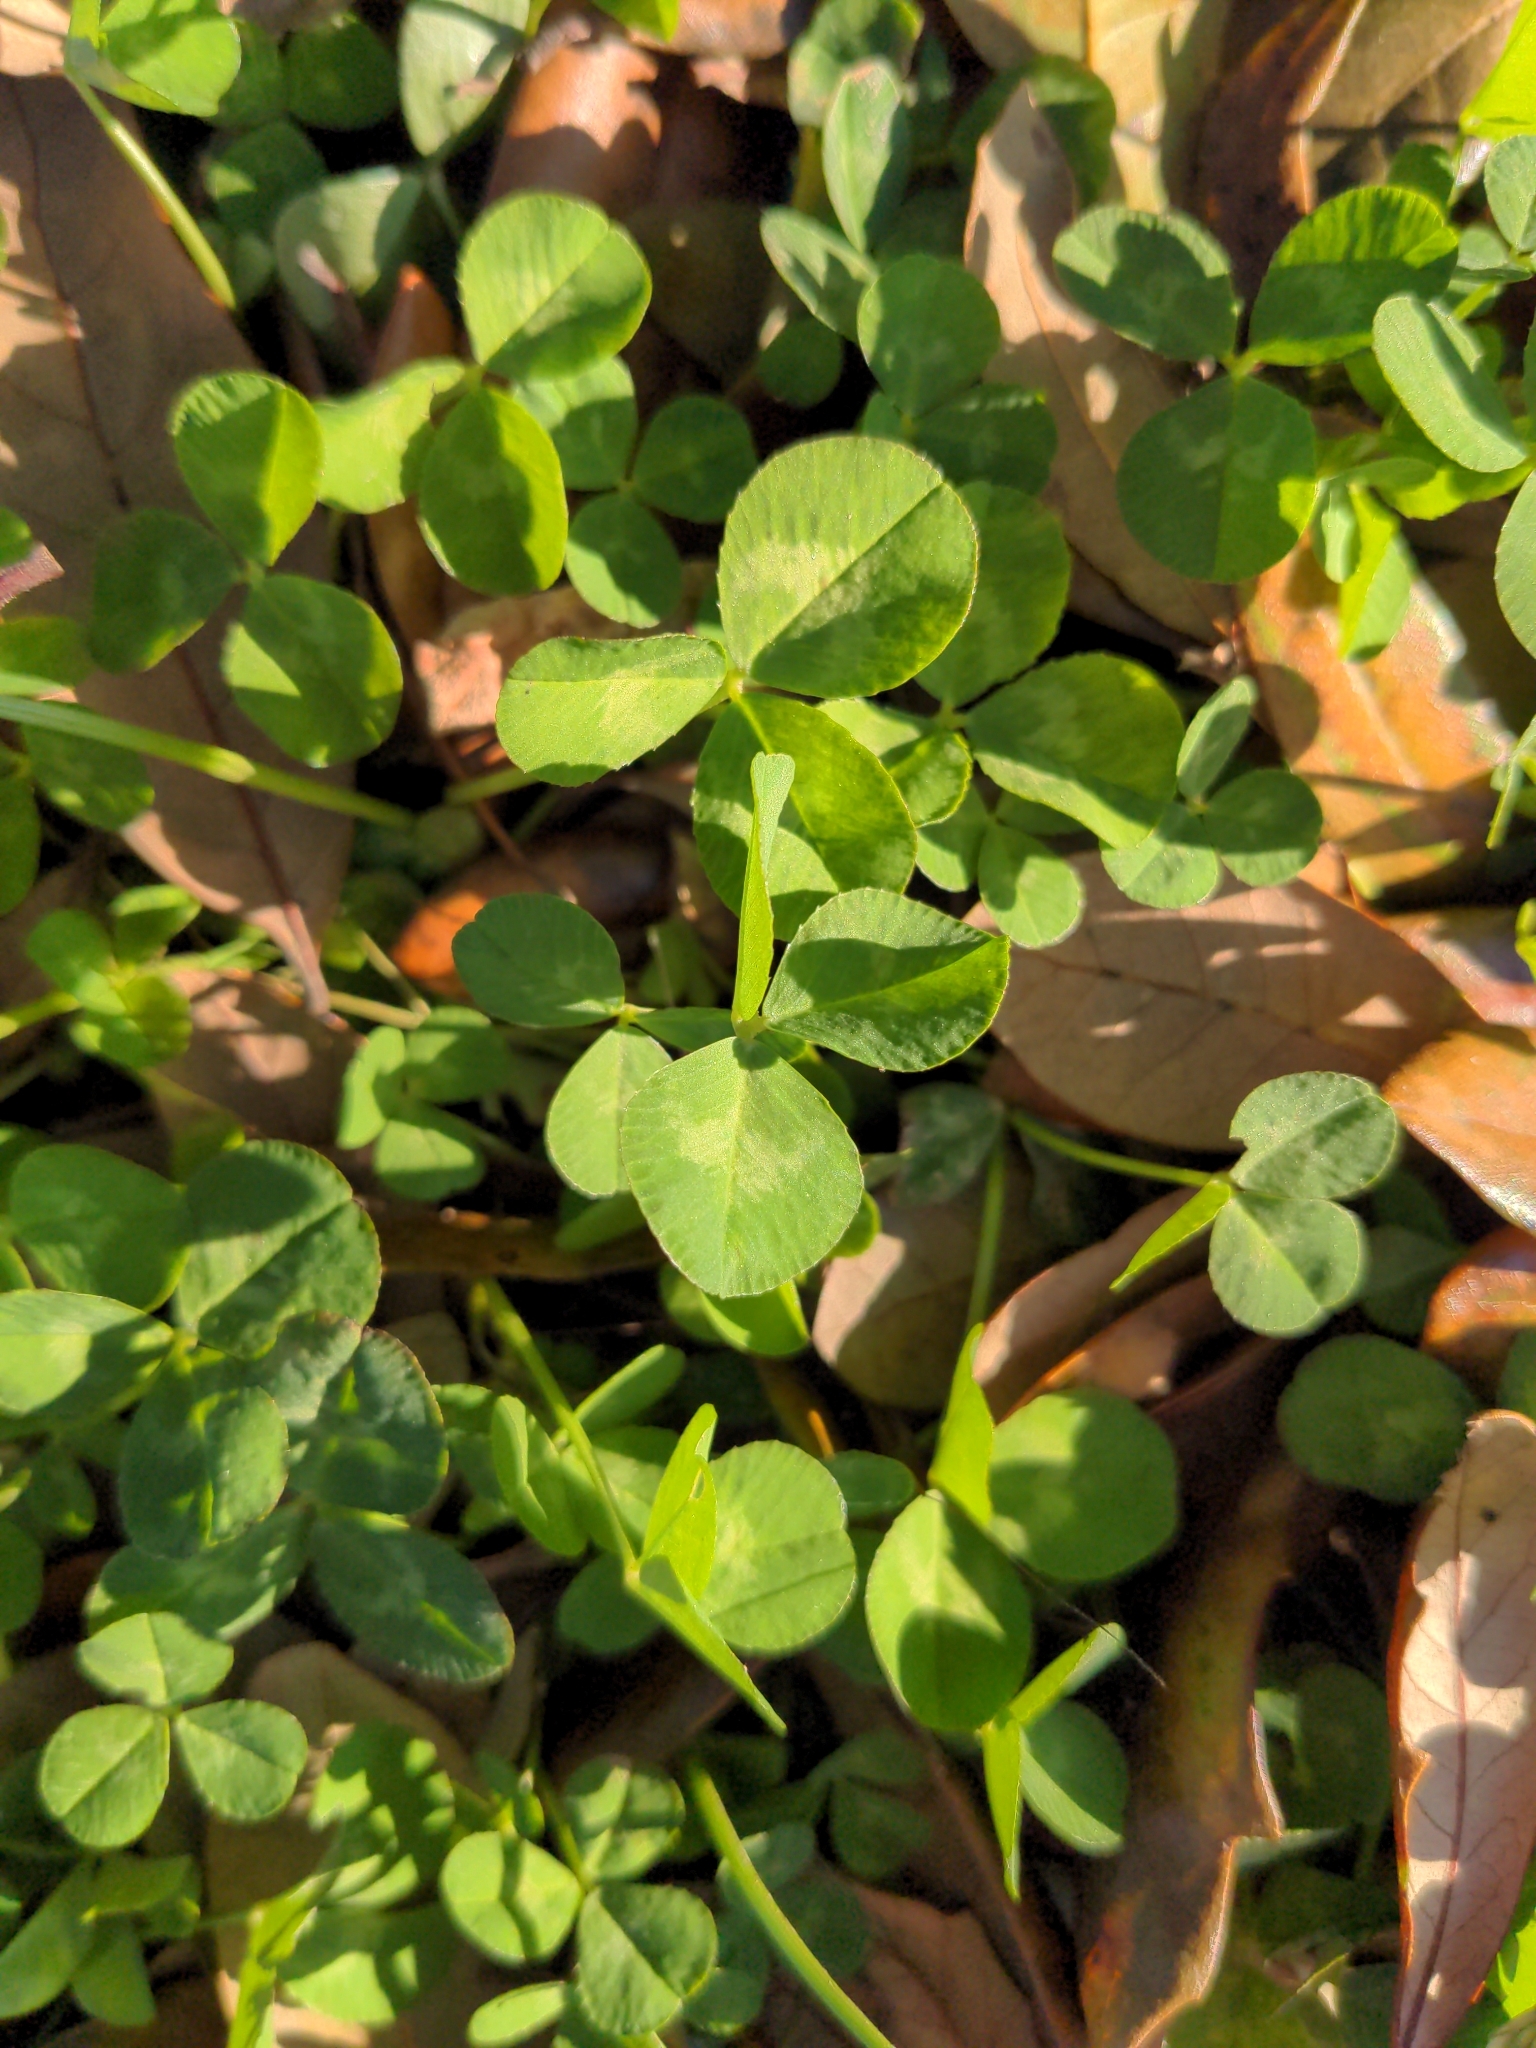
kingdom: Plantae
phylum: Tracheophyta
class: Magnoliopsida
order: Fabales
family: Fabaceae
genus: Trifolium
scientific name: Trifolium repens
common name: White clover
